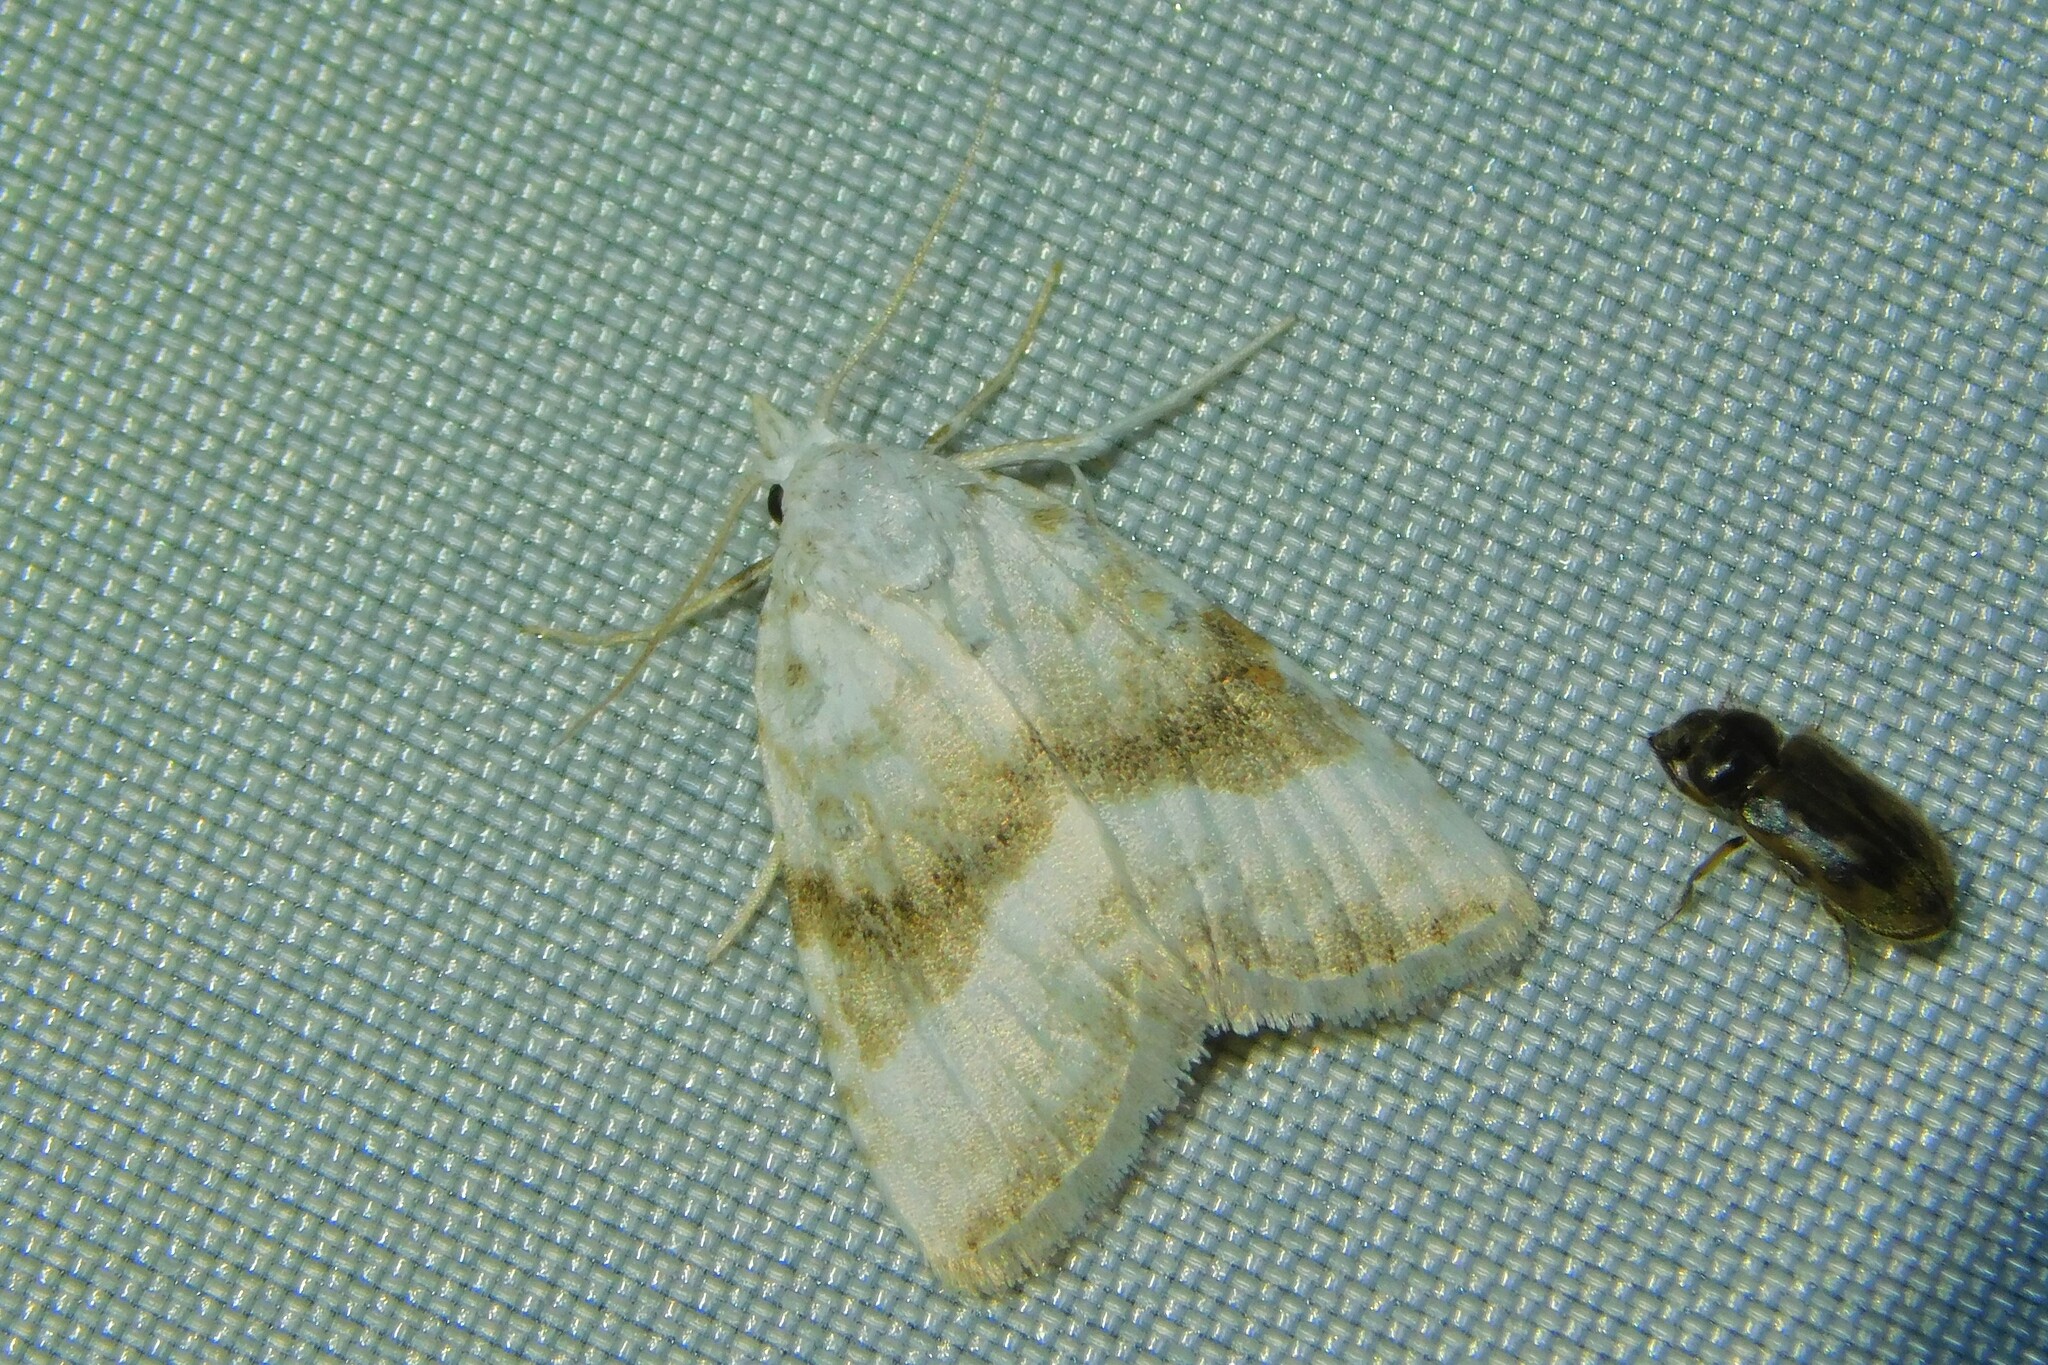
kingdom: Animalia
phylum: Arthropoda
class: Insecta
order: Lepidoptera
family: Nolidae
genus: Meganola
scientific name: Meganola albula
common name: Kent black arches
